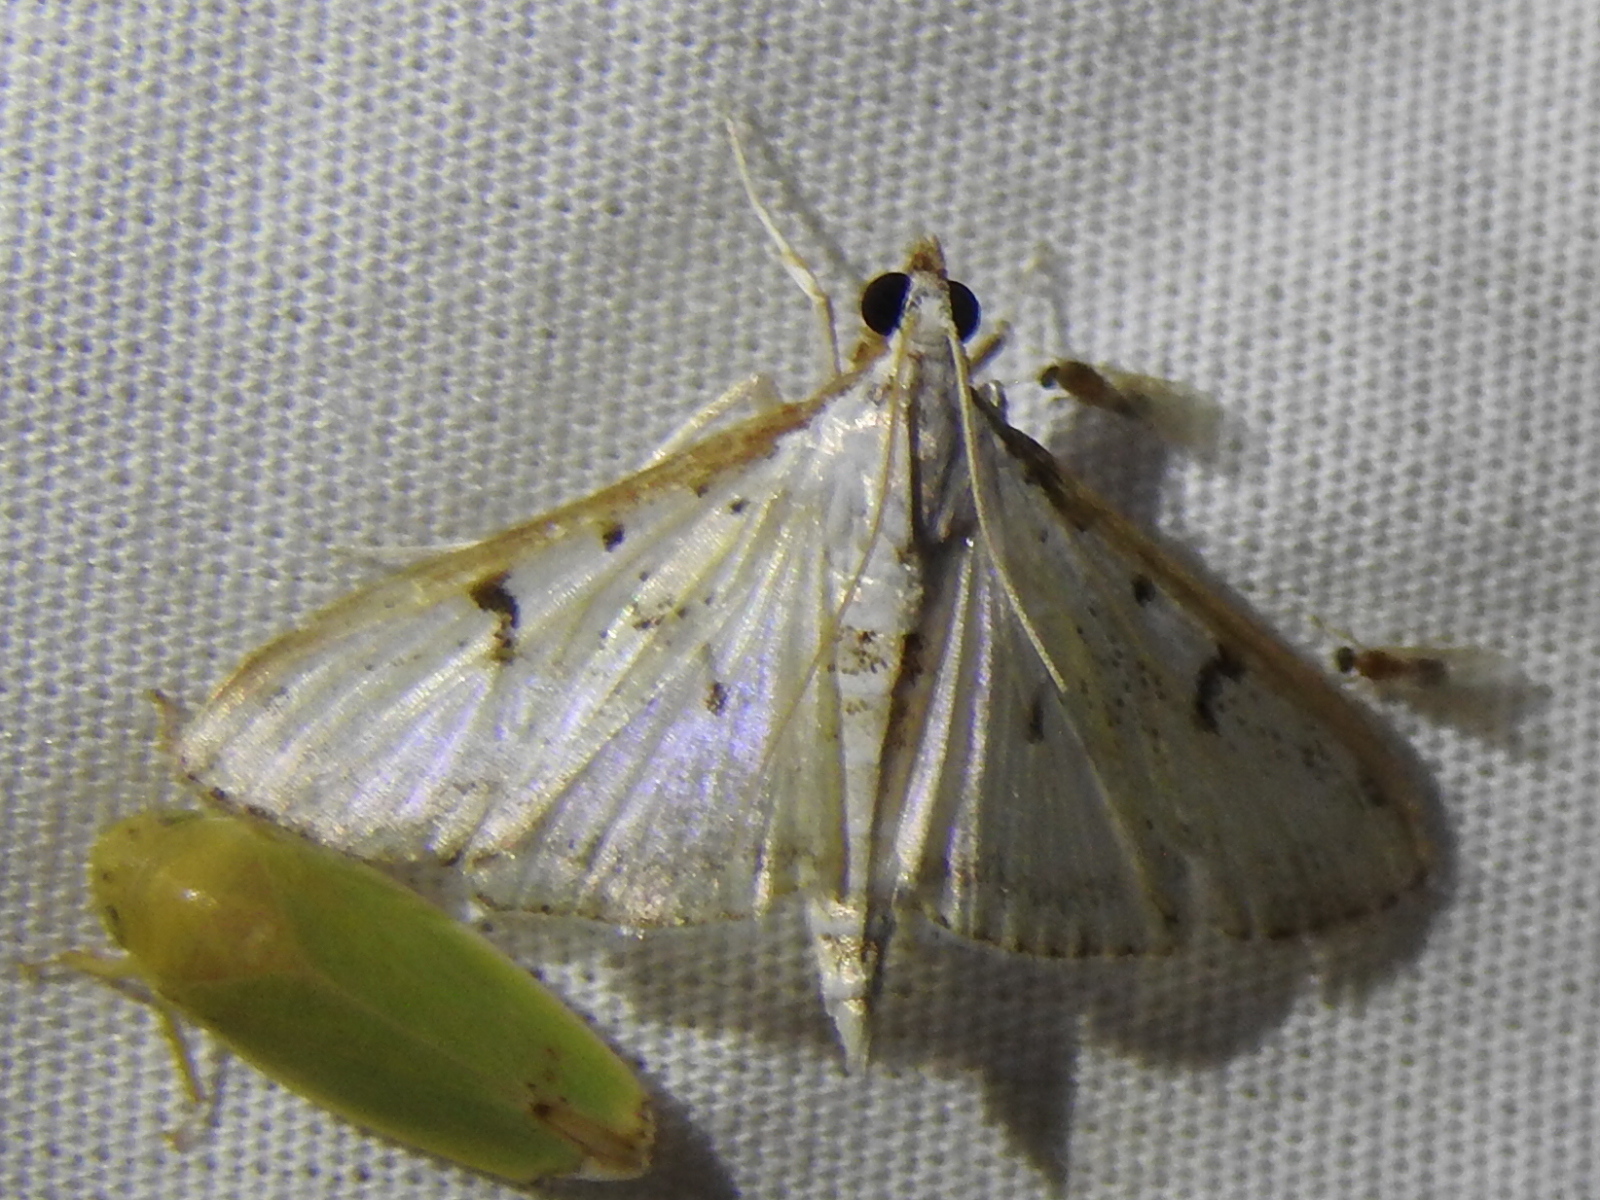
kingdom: Animalia
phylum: Arthropoda
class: Insecta
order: Lepidoptera
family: Crambidae
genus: Palpita
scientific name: Palpita gracilalis
